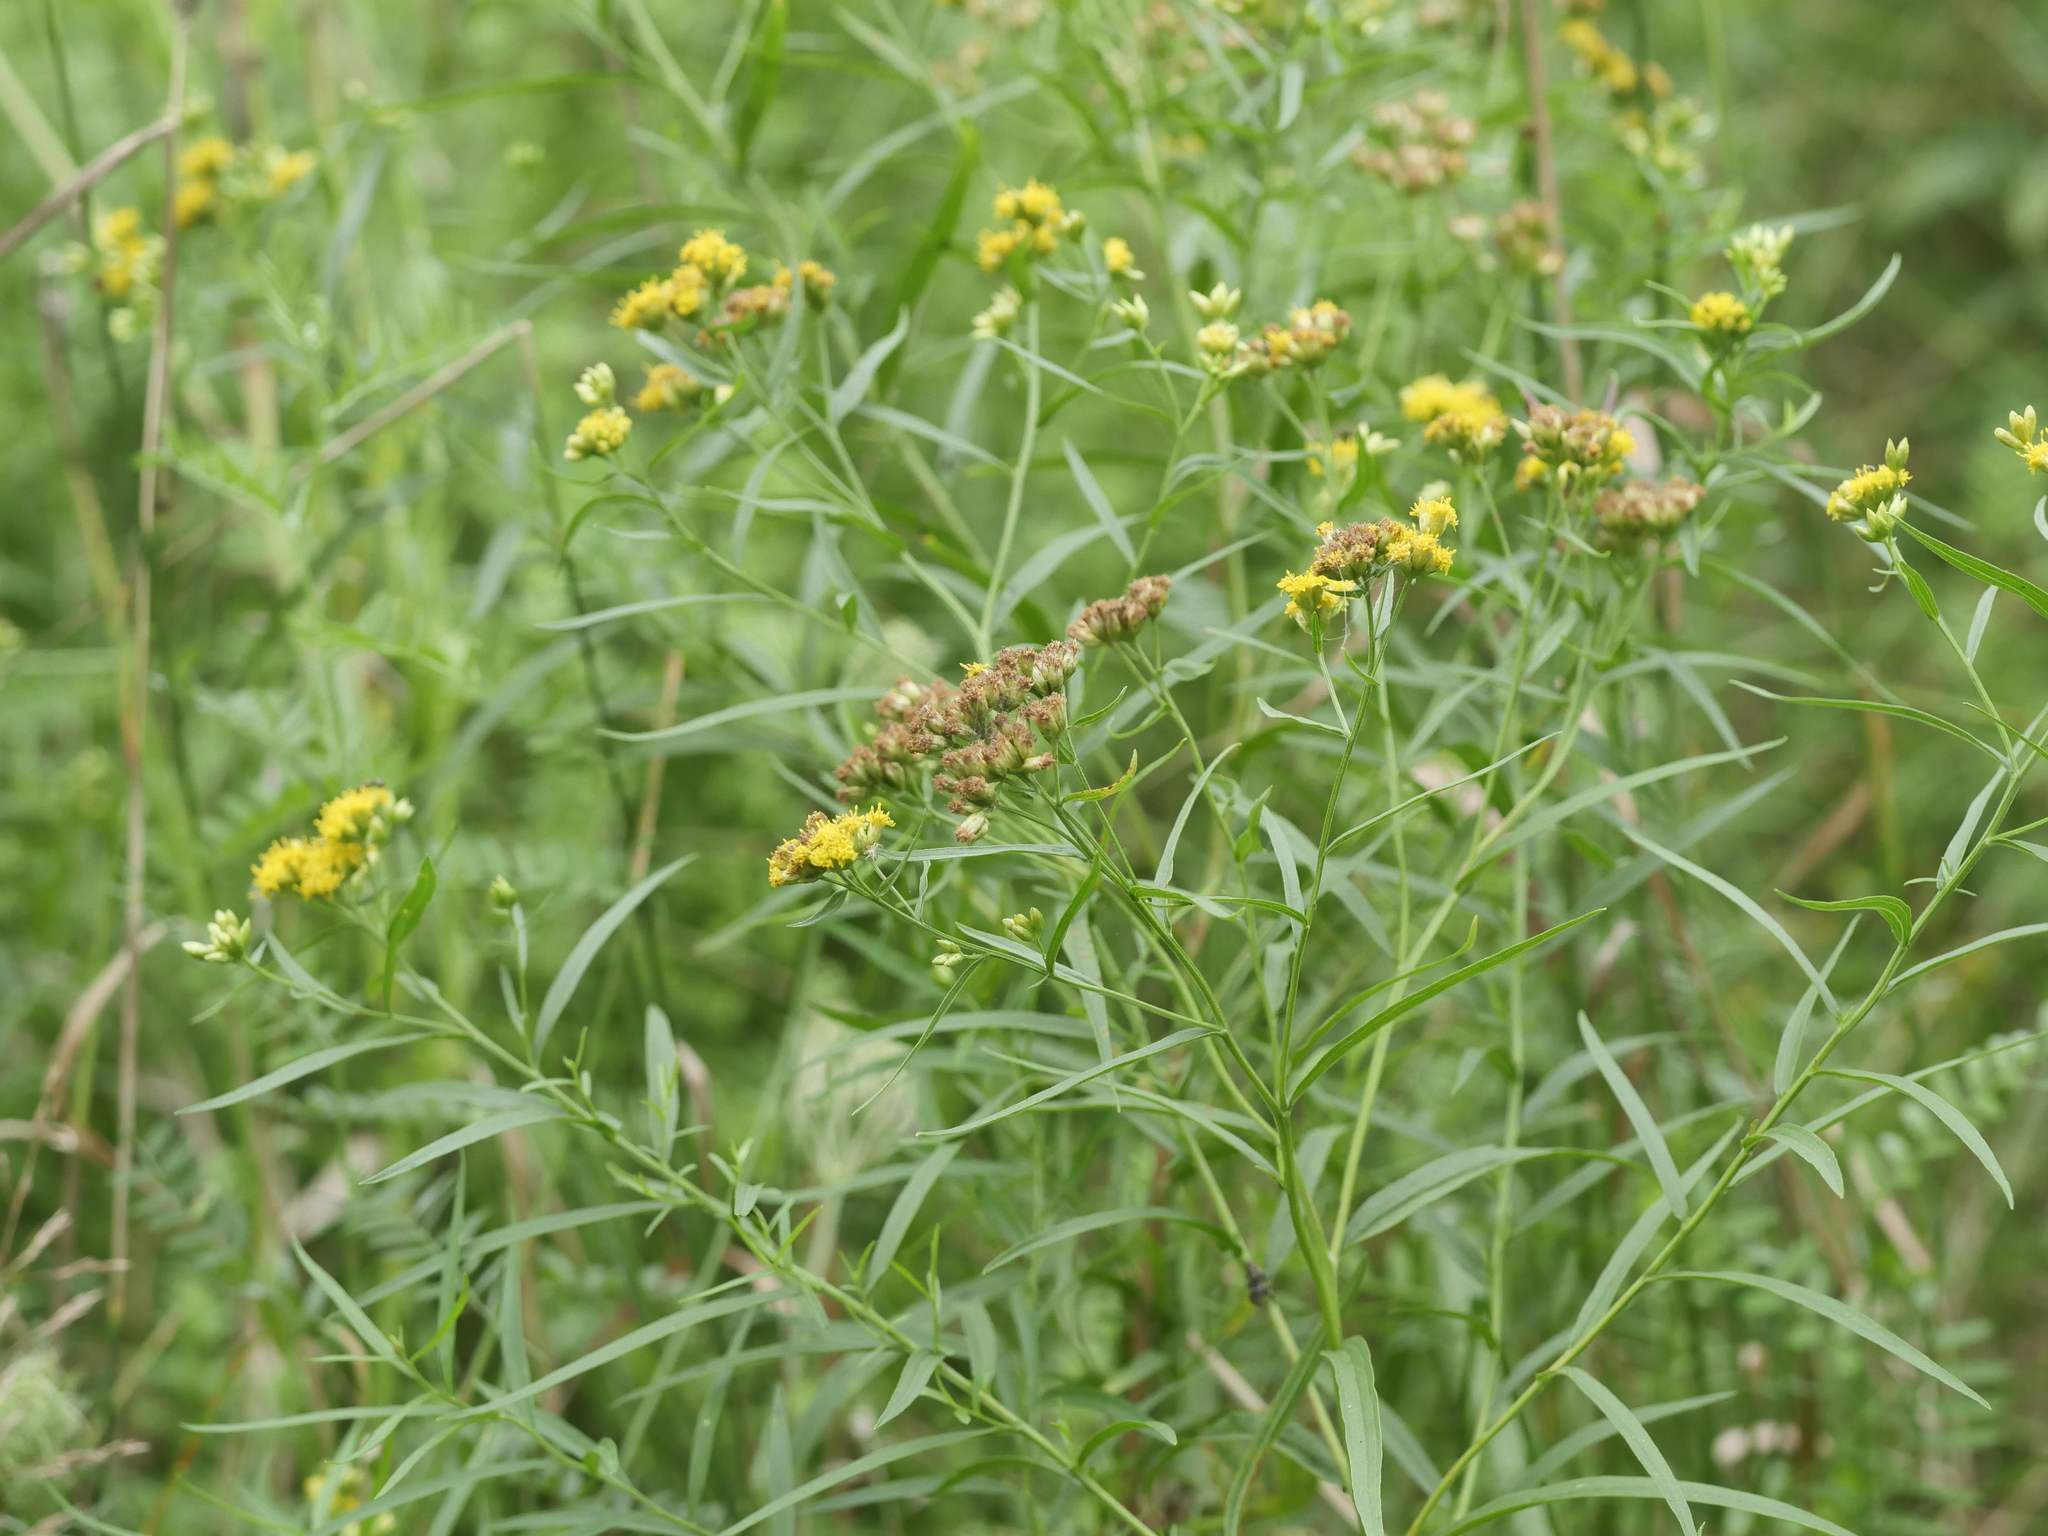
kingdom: Plantae
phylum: Tracheophyta
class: Magnoliopsida
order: Asterales
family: Asteraceae
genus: Euthamia
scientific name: Euthamia graminifolia
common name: Common goldentop
